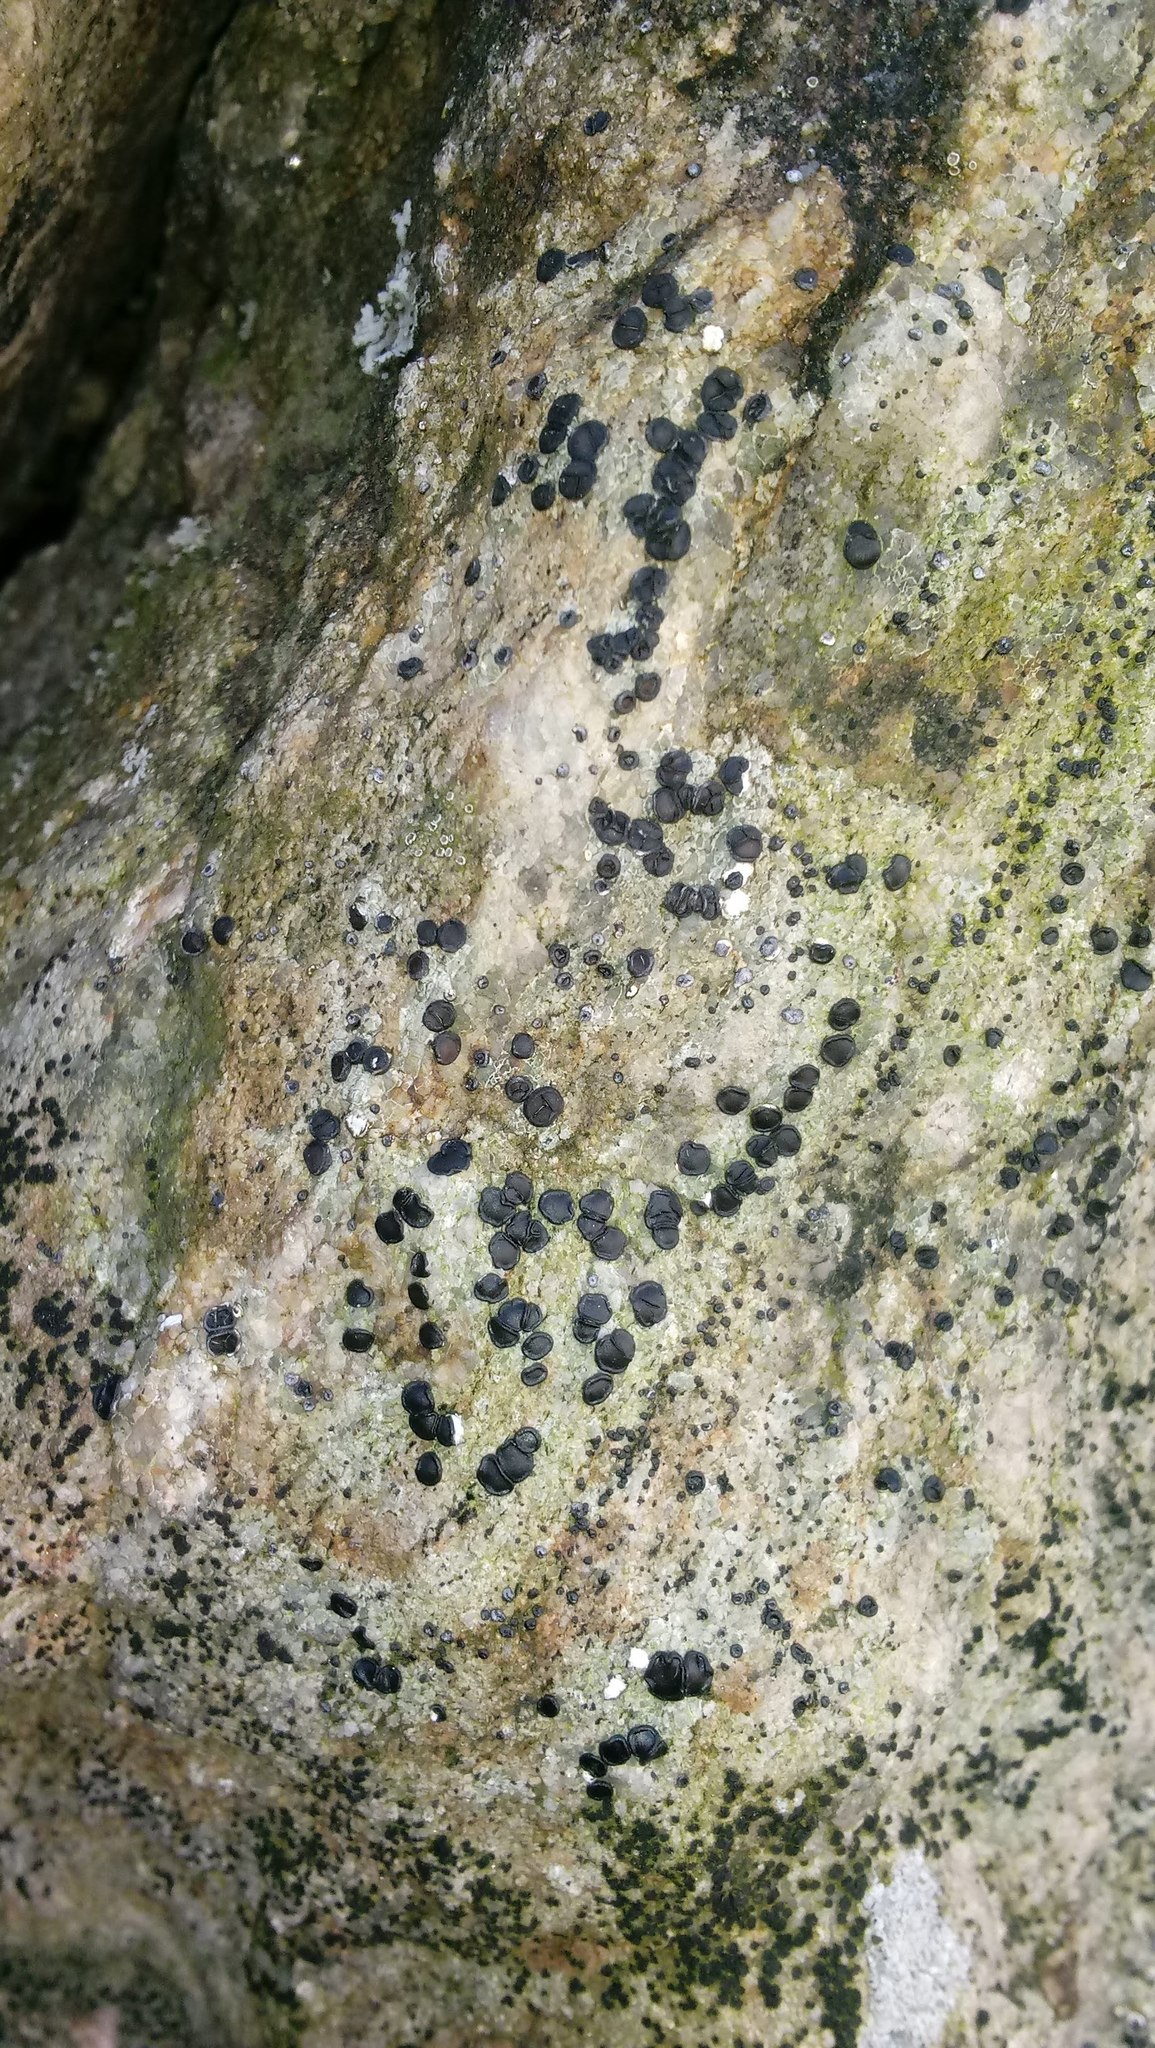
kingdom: Fungi
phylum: Ascomycota
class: Lecanoromycetes
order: Acarosporales
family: Acarosporaceae
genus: Sarcogyne
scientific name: Sarcogyne clavus
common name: Club grain-spored lichen
